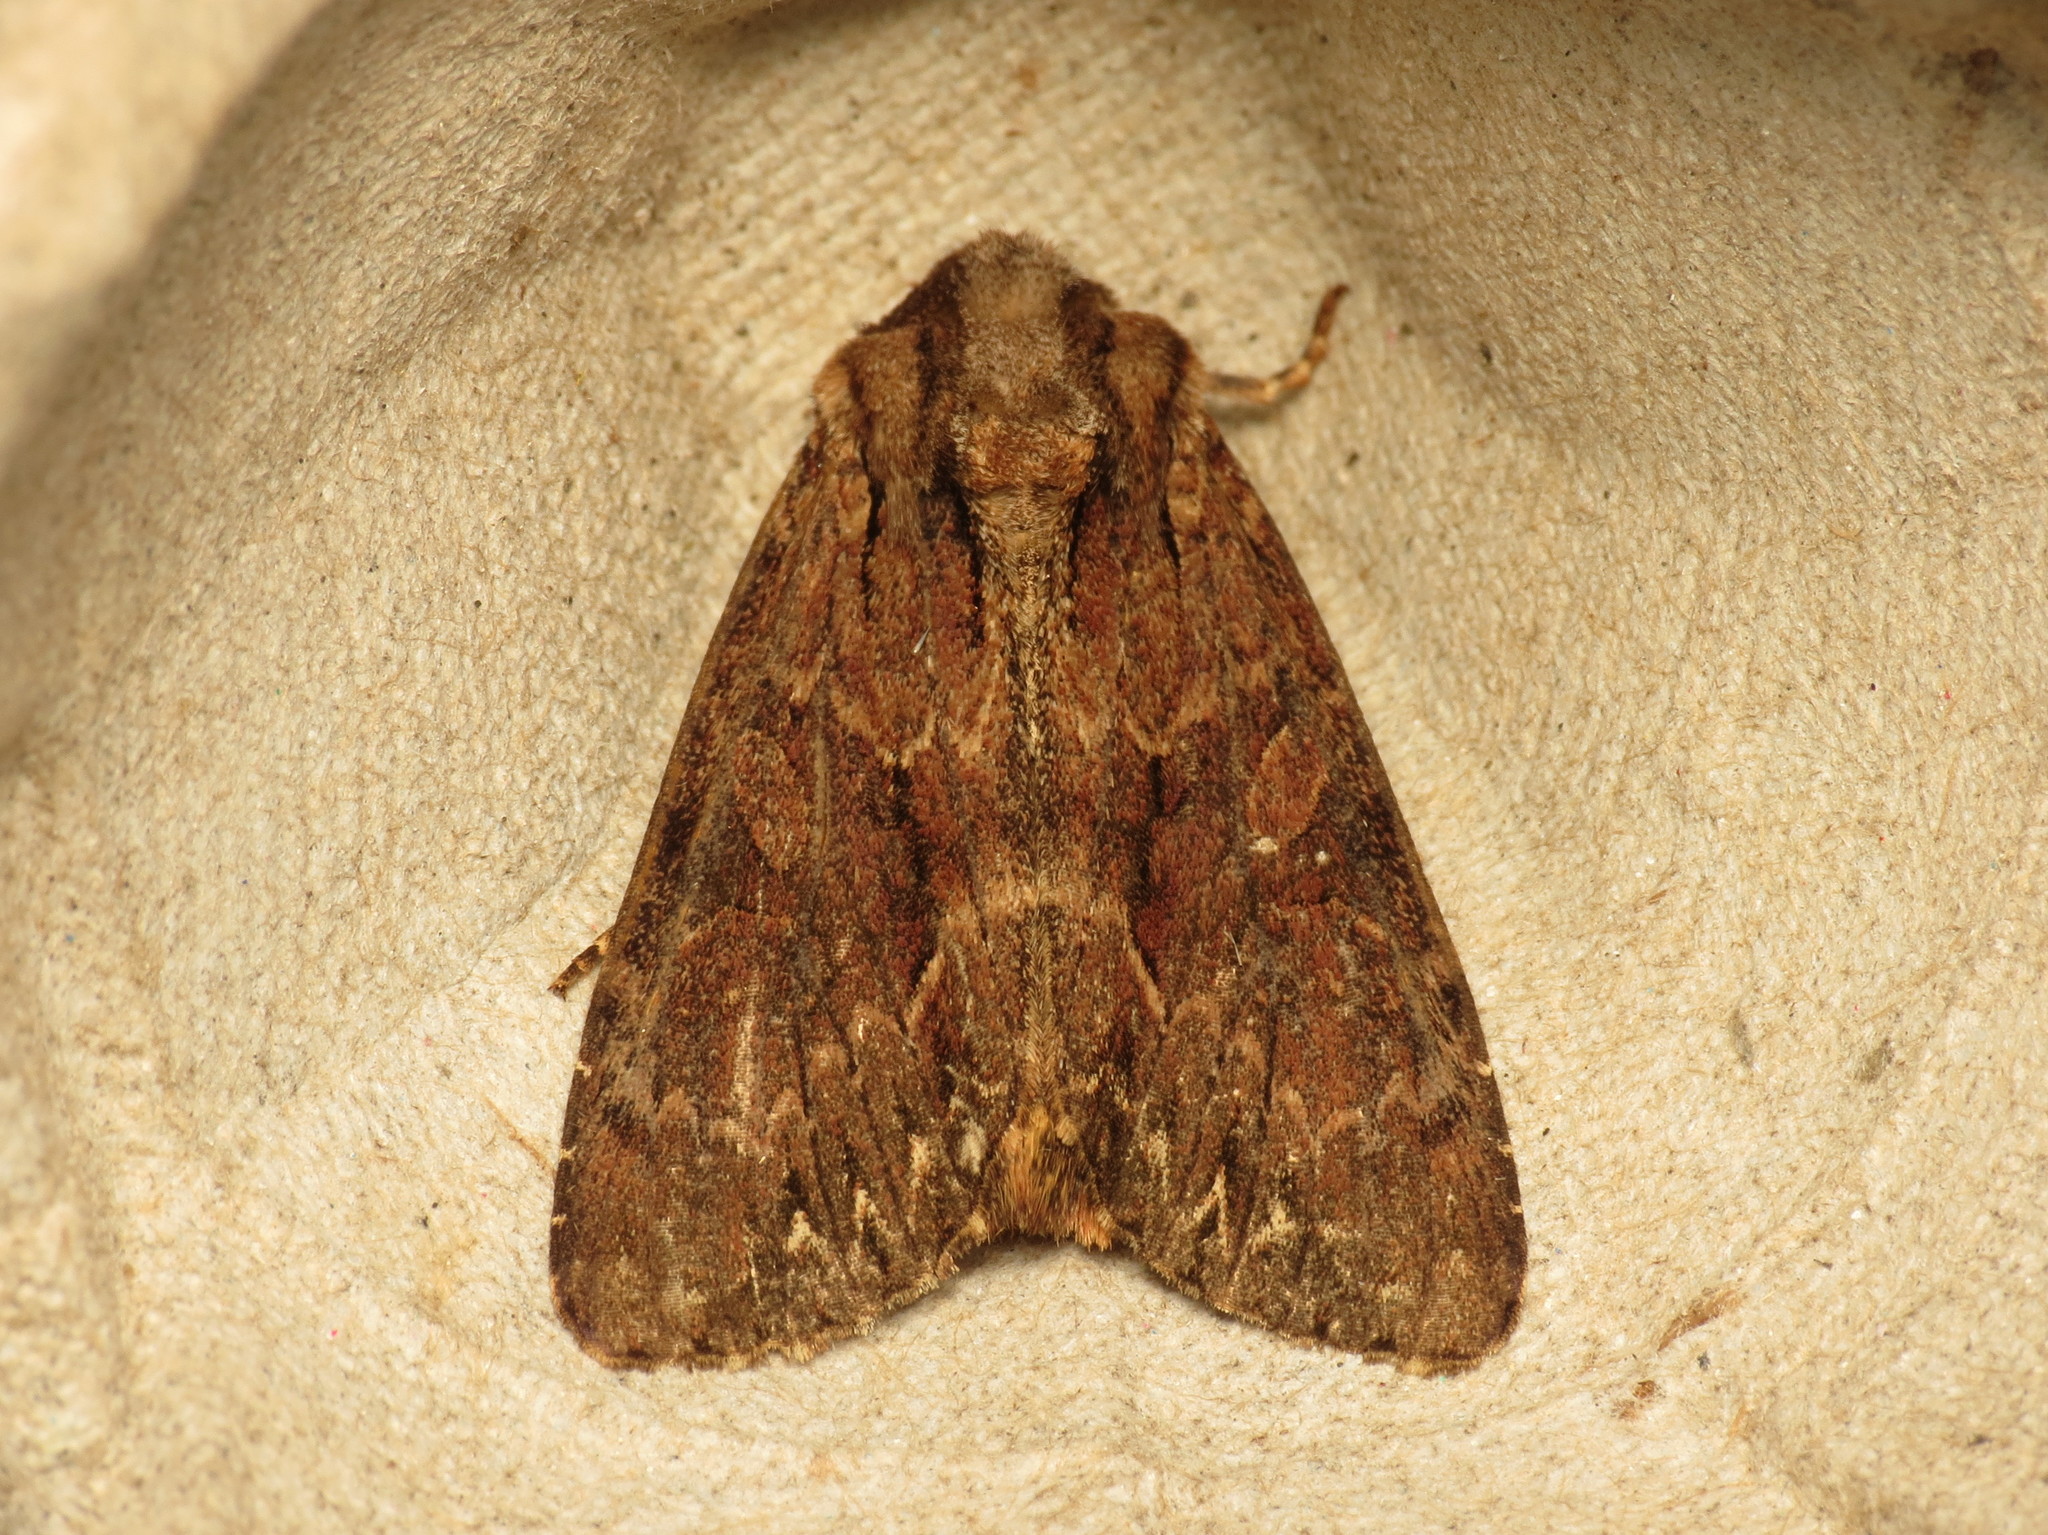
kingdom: Animalia
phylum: Arthropoda
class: Insecta
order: Lepidoptera
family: Noctuidae
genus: Apamea
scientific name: Apamea monoglypha
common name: Dark arches
